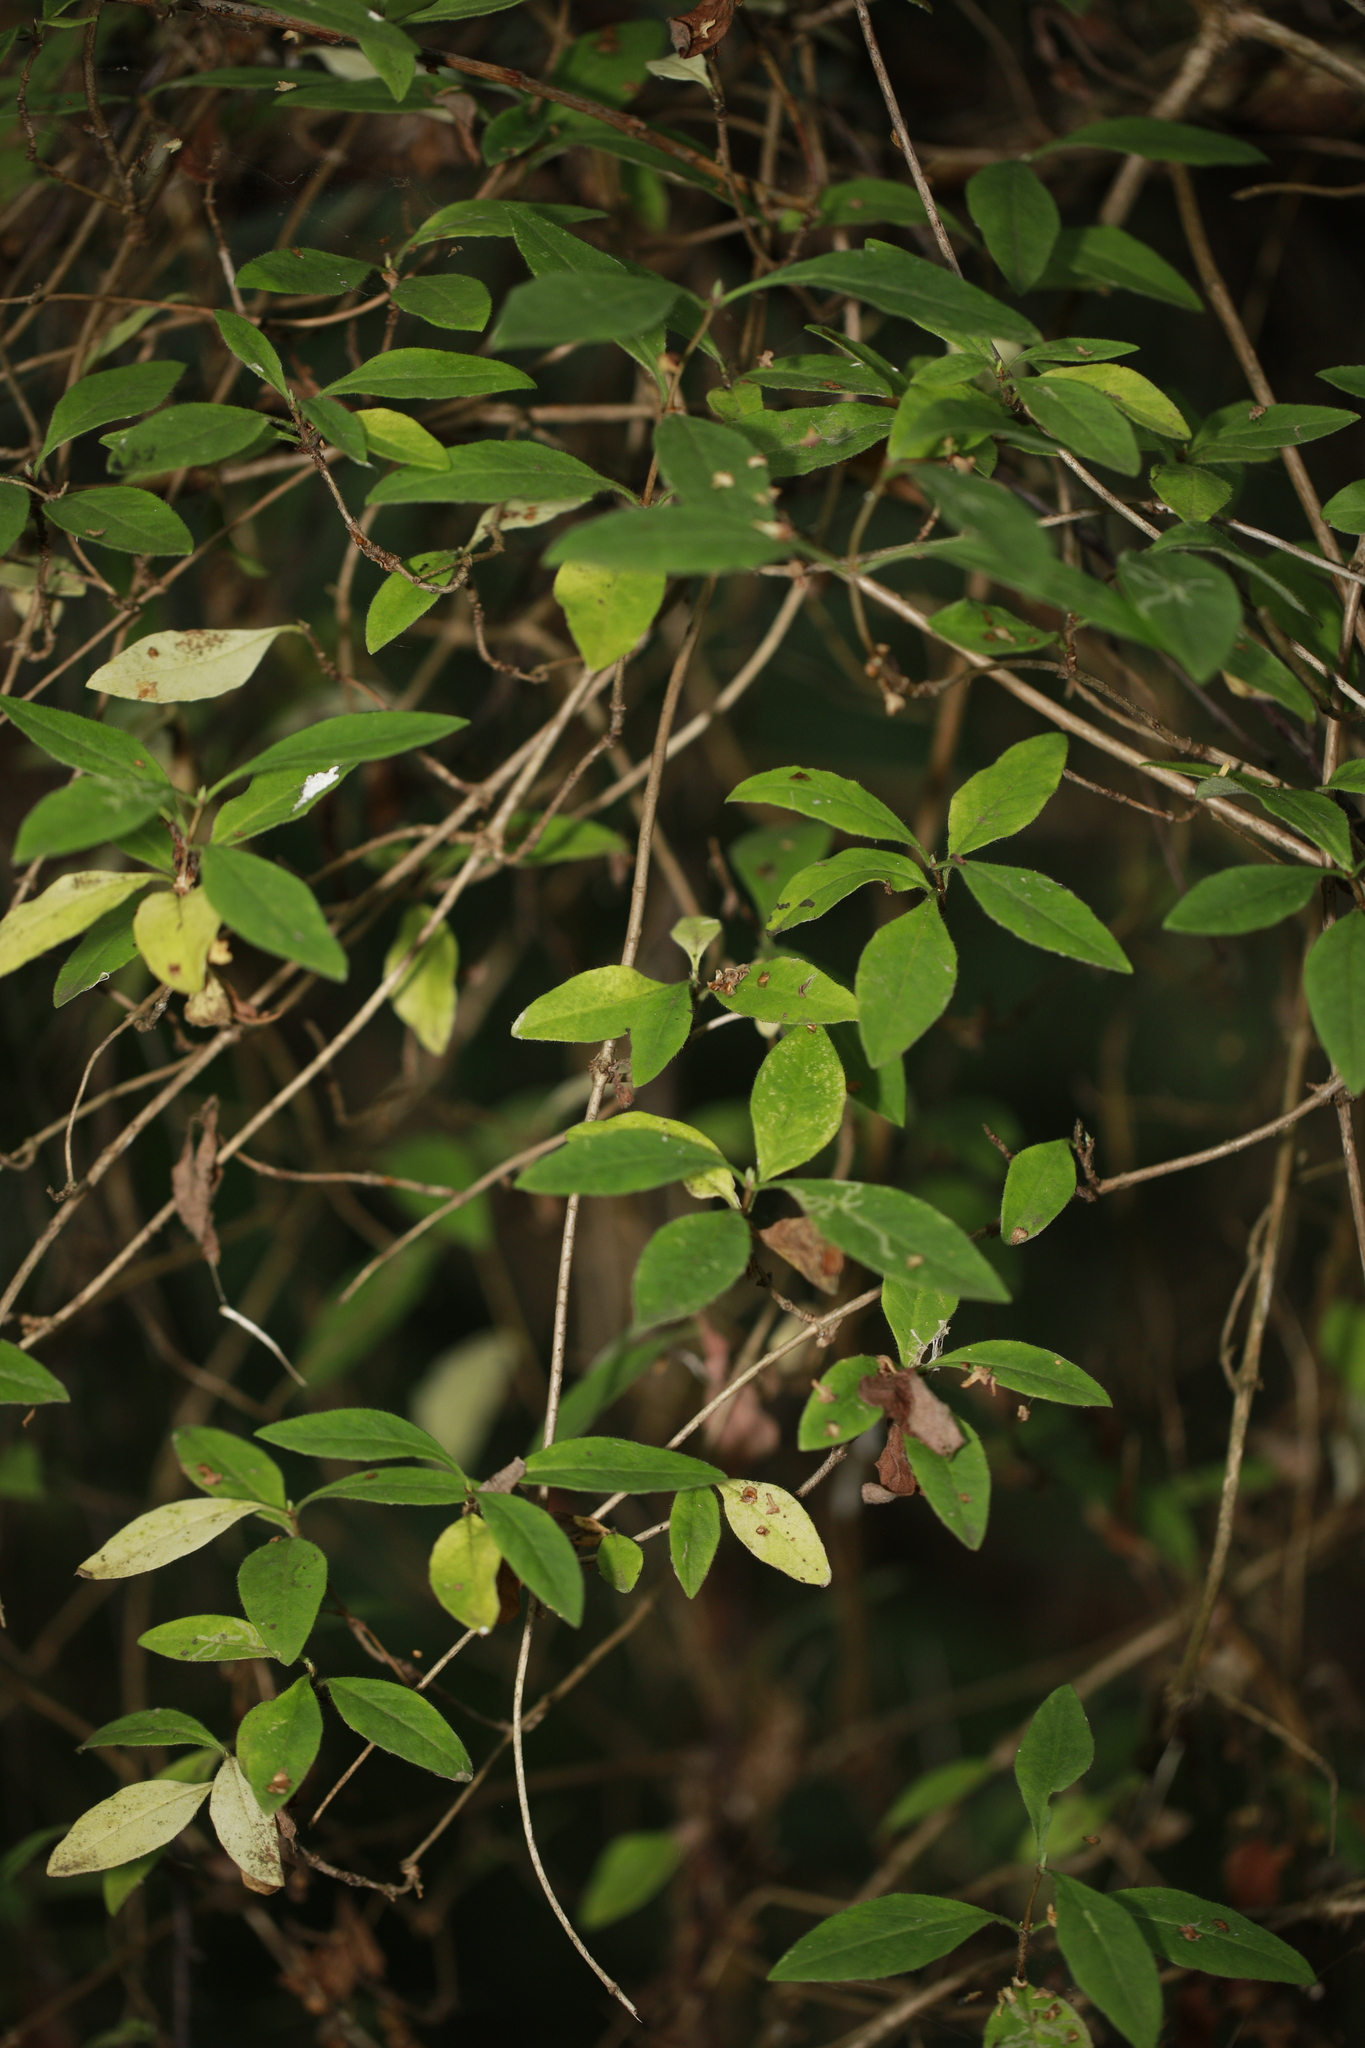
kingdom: Plantae
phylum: Tracheophyta
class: Magnoliopsida
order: Dipsacales
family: Caprifoliaceae
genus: Lonicera
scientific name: Lonicera periclymenum
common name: European honeysuckle
